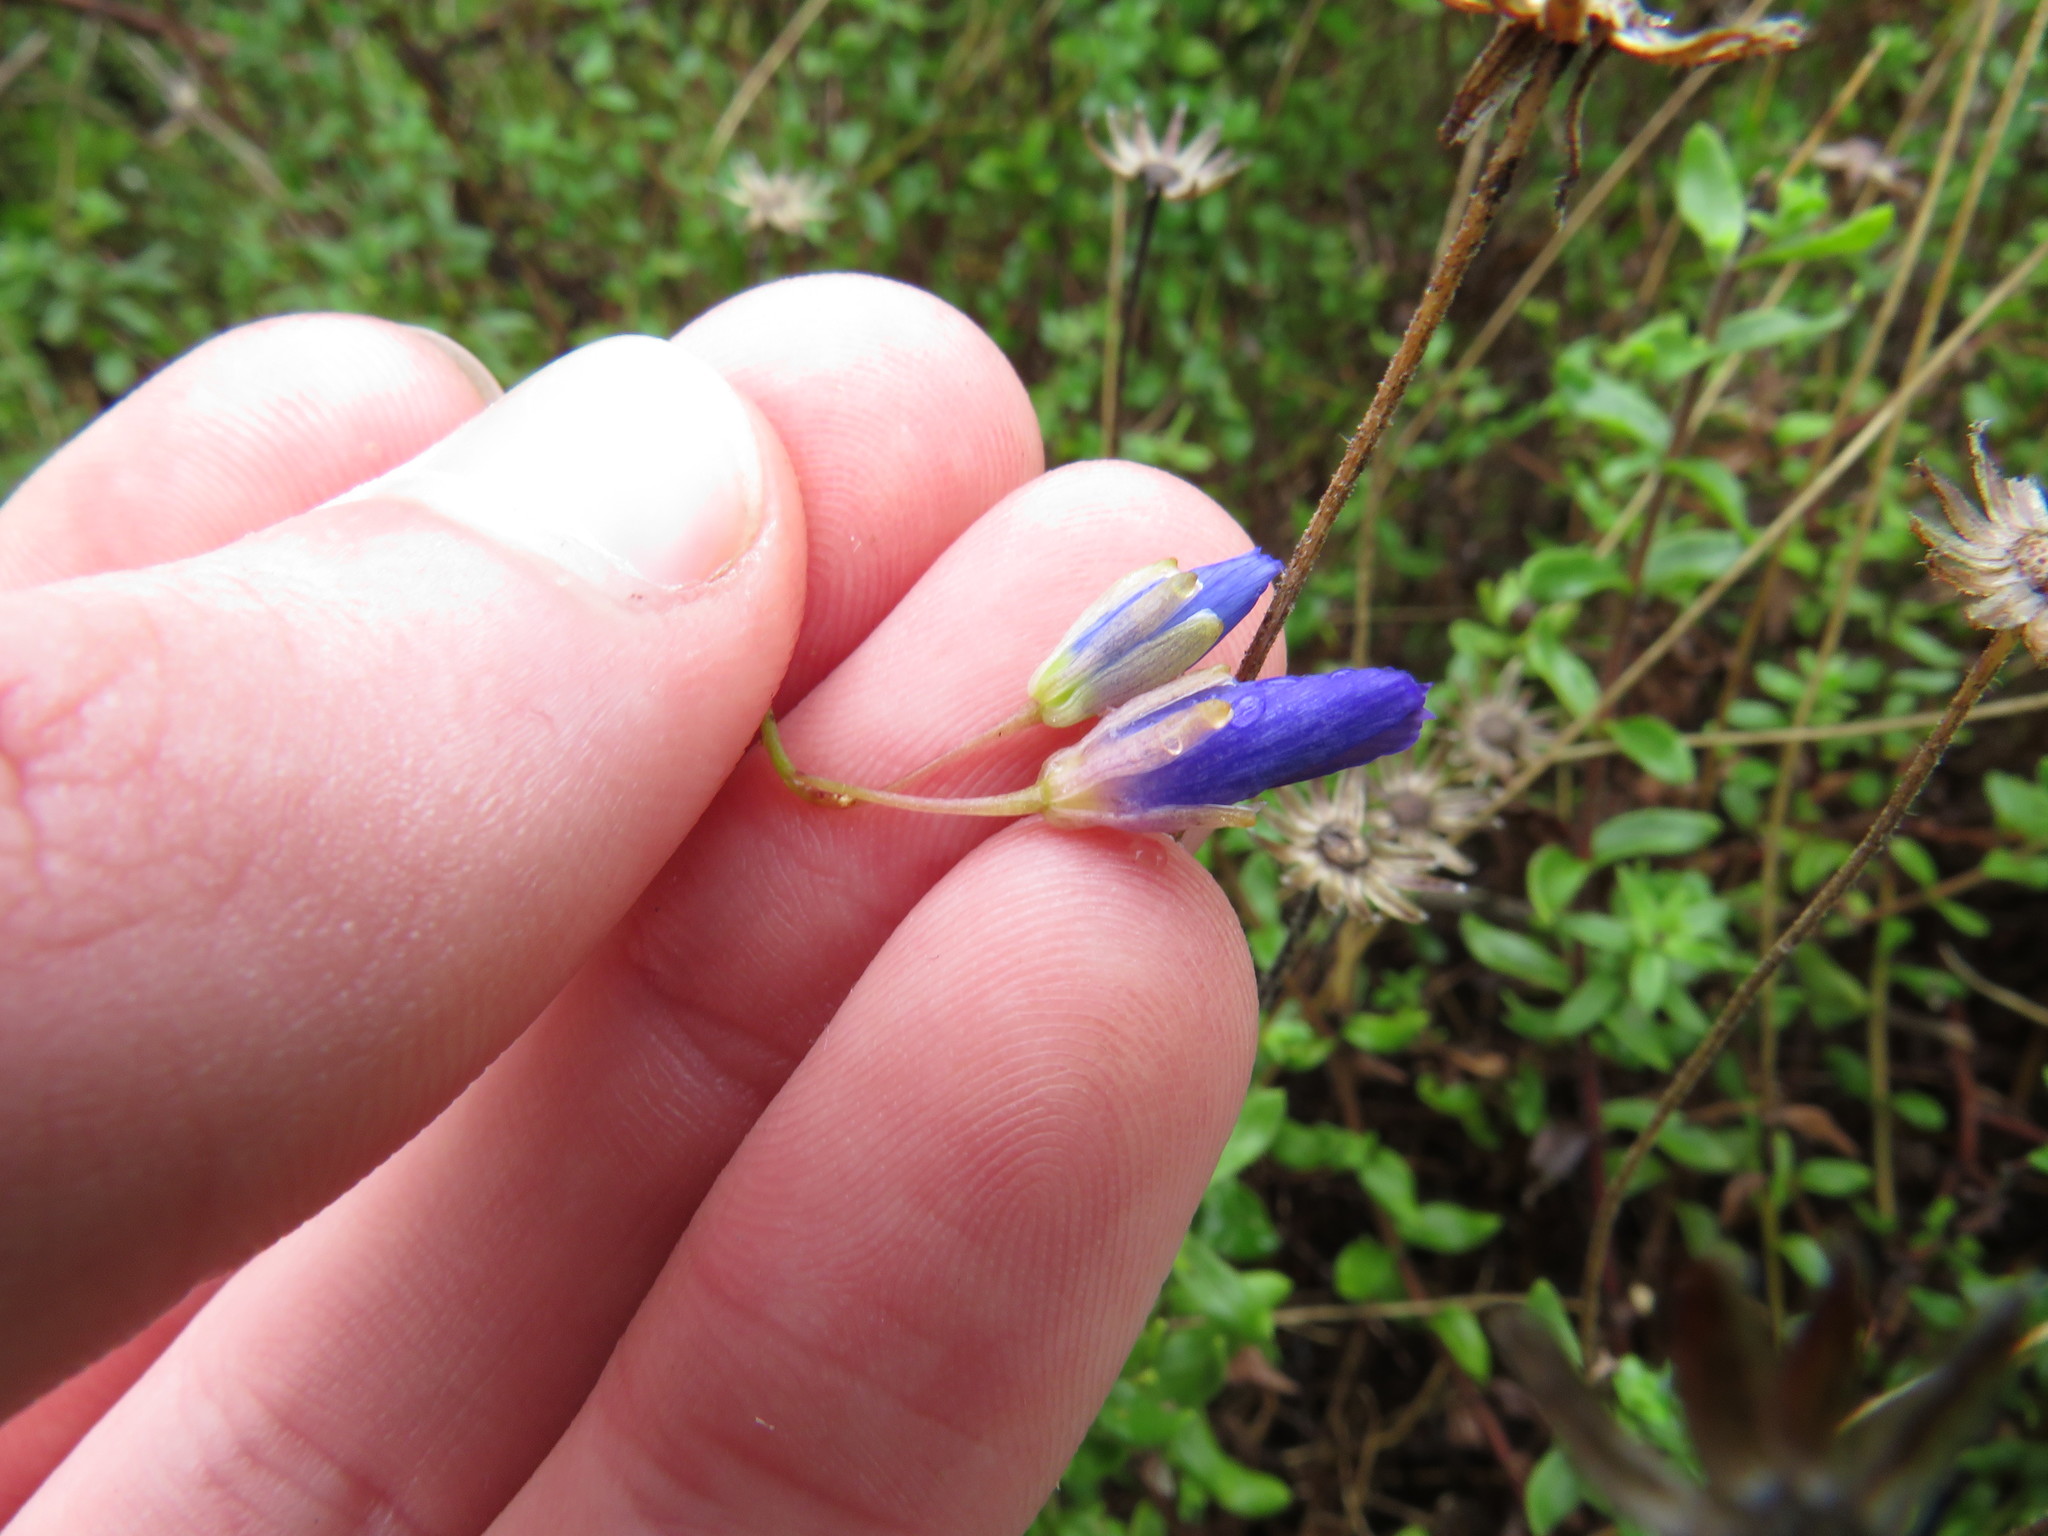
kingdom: Plantae
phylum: Tracheophyta
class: Magnoliopsida
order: Brassicales
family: Brassicaceae
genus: Heliophila
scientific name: Heliophila linearis
